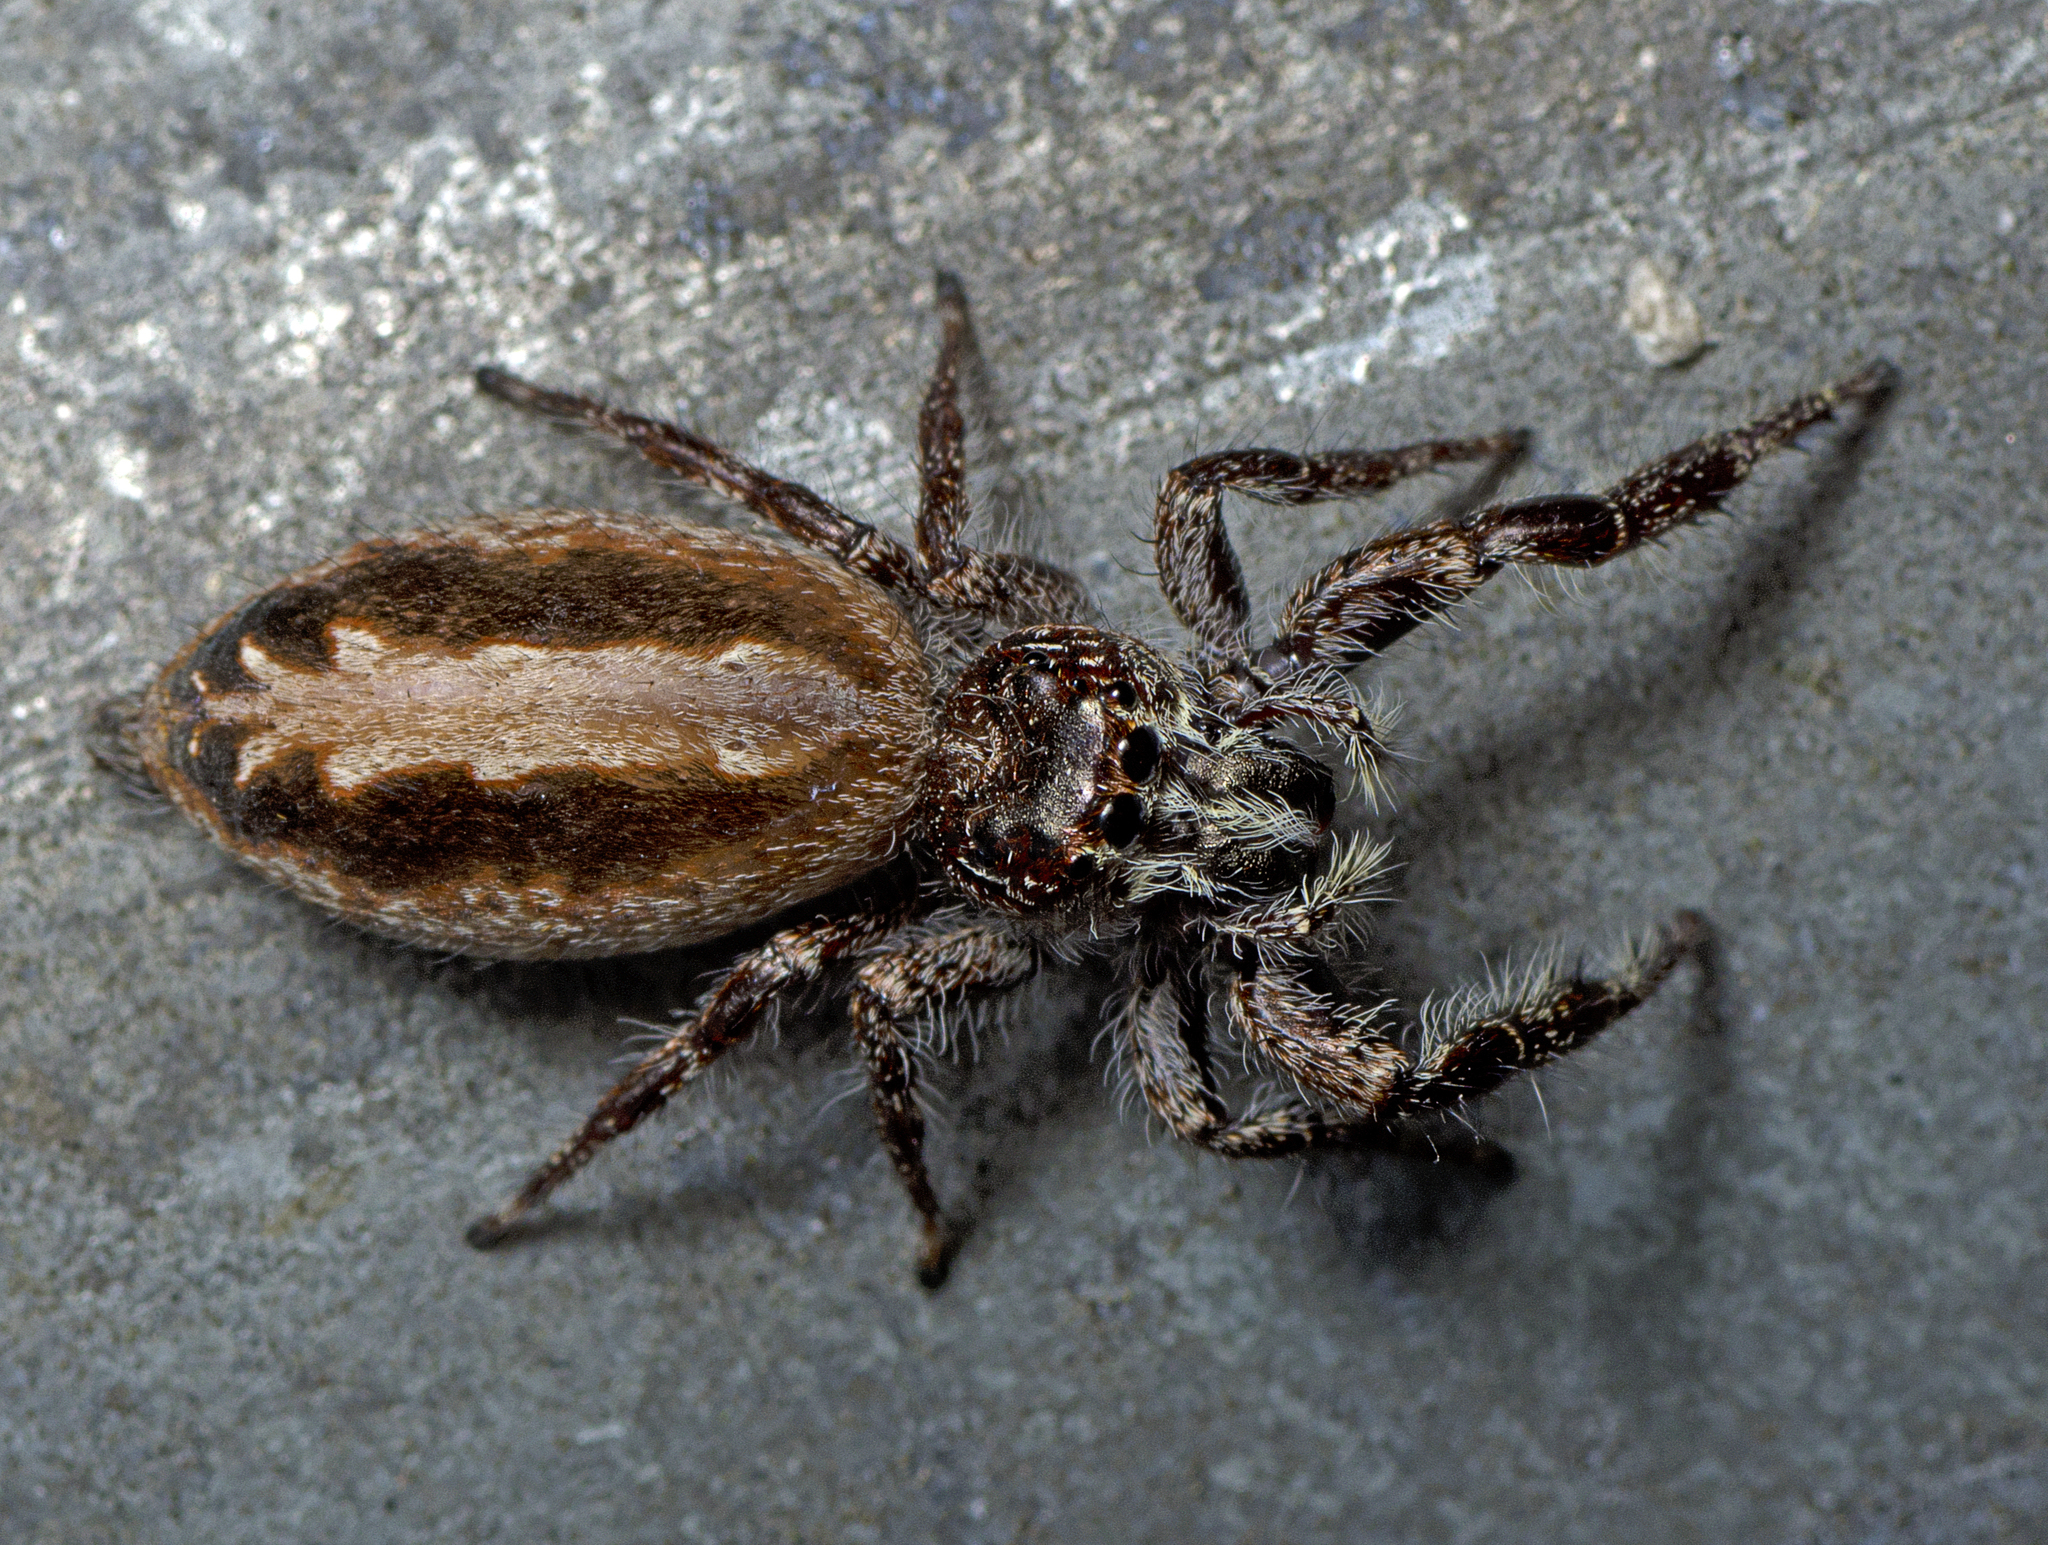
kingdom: Animalia
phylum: Arthropoda
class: Arachnida
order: Araneae
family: Salticidae
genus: Sandalodes
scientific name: Sandalodes superbus
